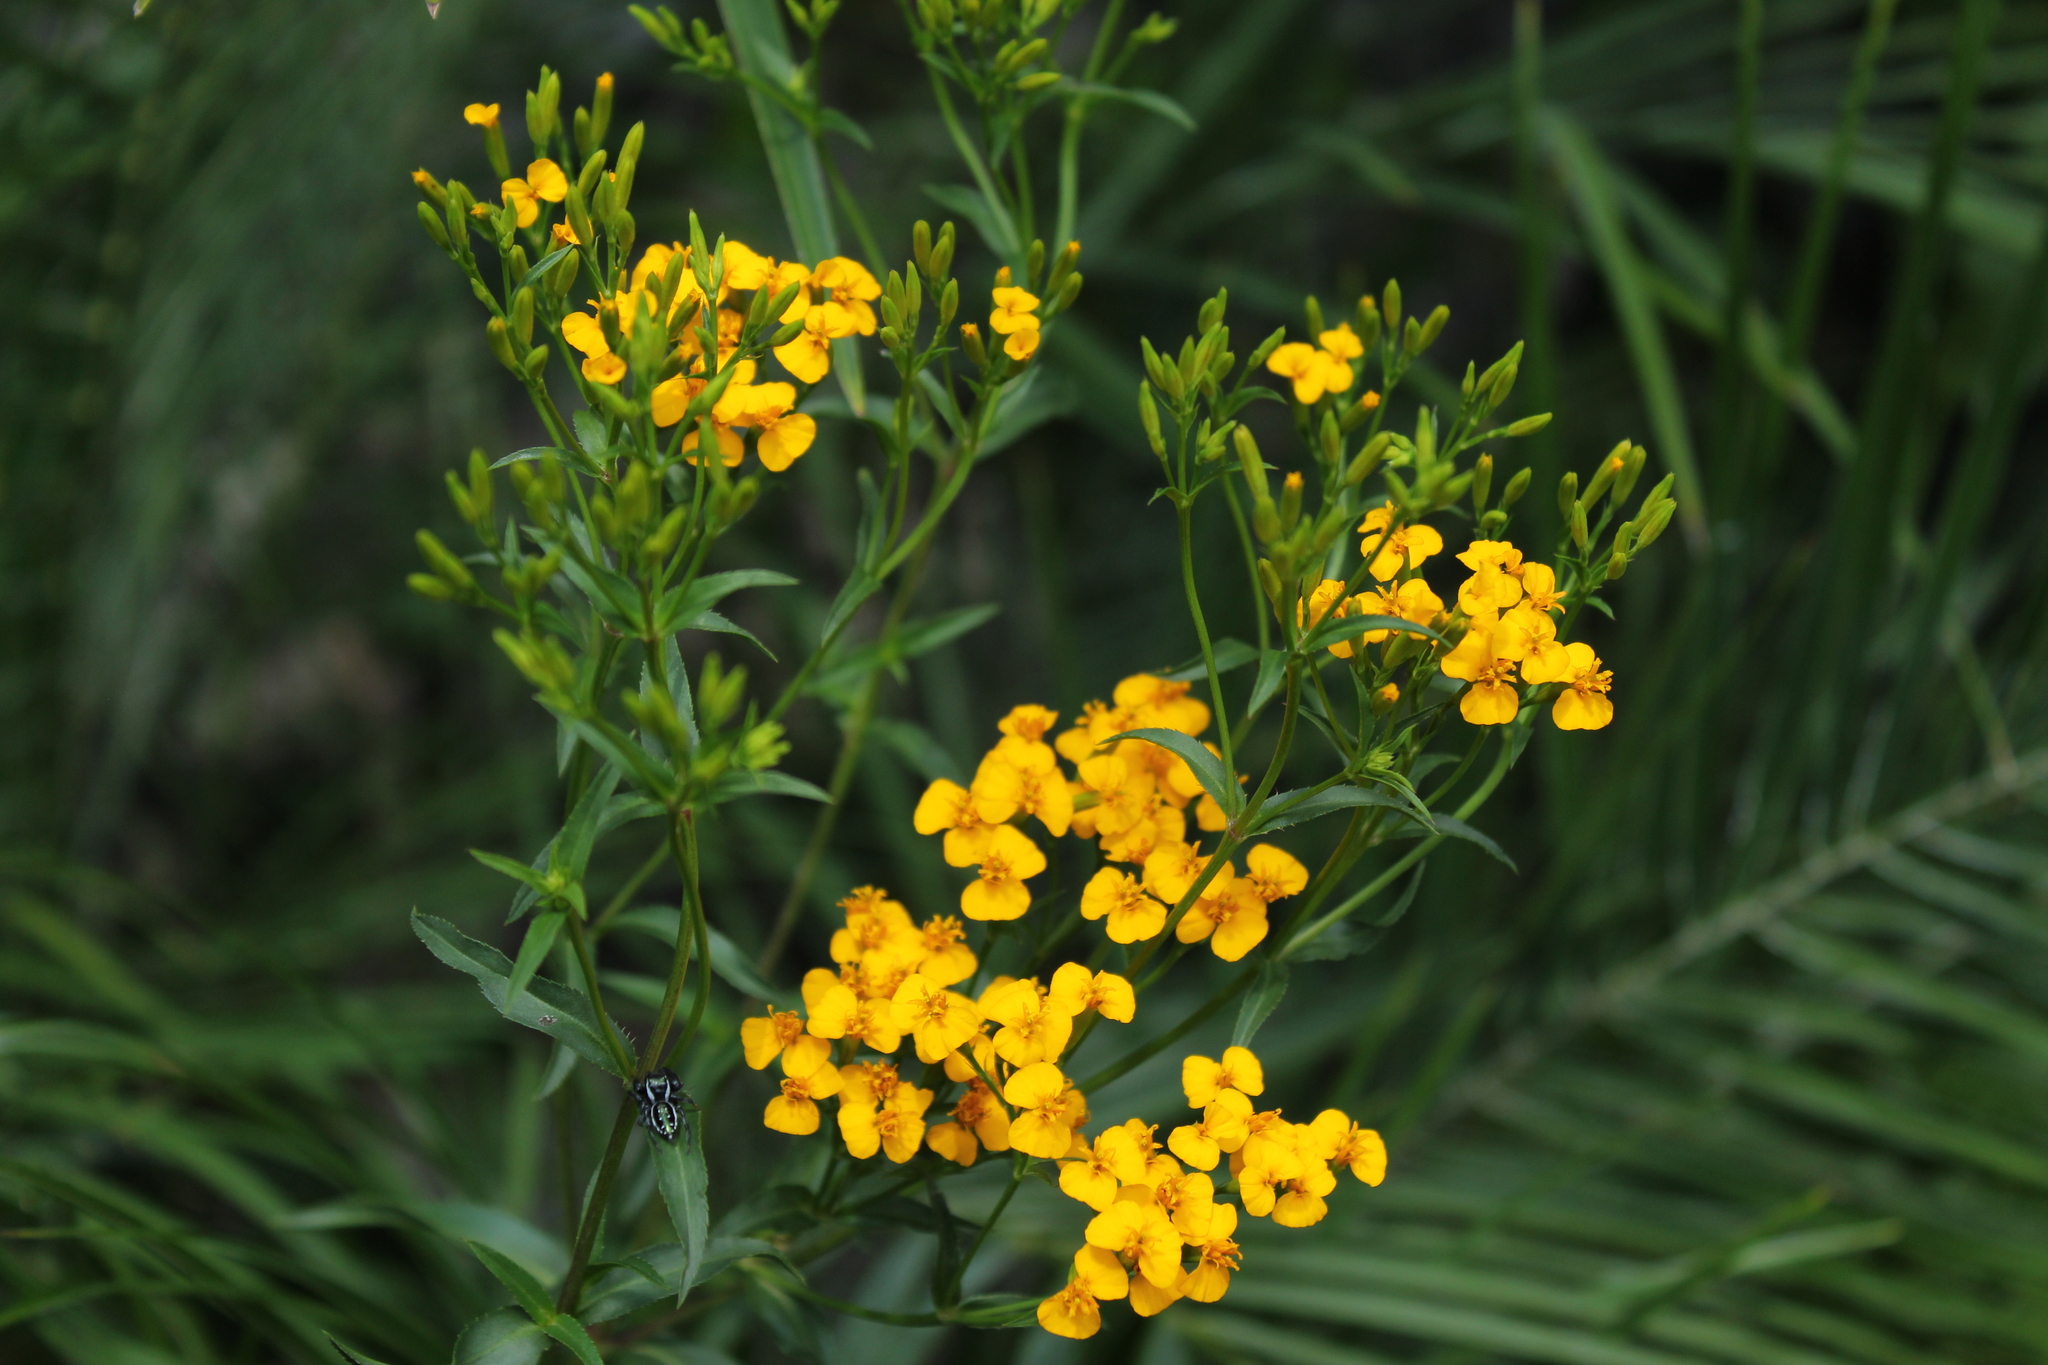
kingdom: Plantae
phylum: Tracheophyta
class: Magnoliopsida
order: Asterales
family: Asteraceae
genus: Tagetes
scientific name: Tagetes lucida
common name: Sweetscented marigold
